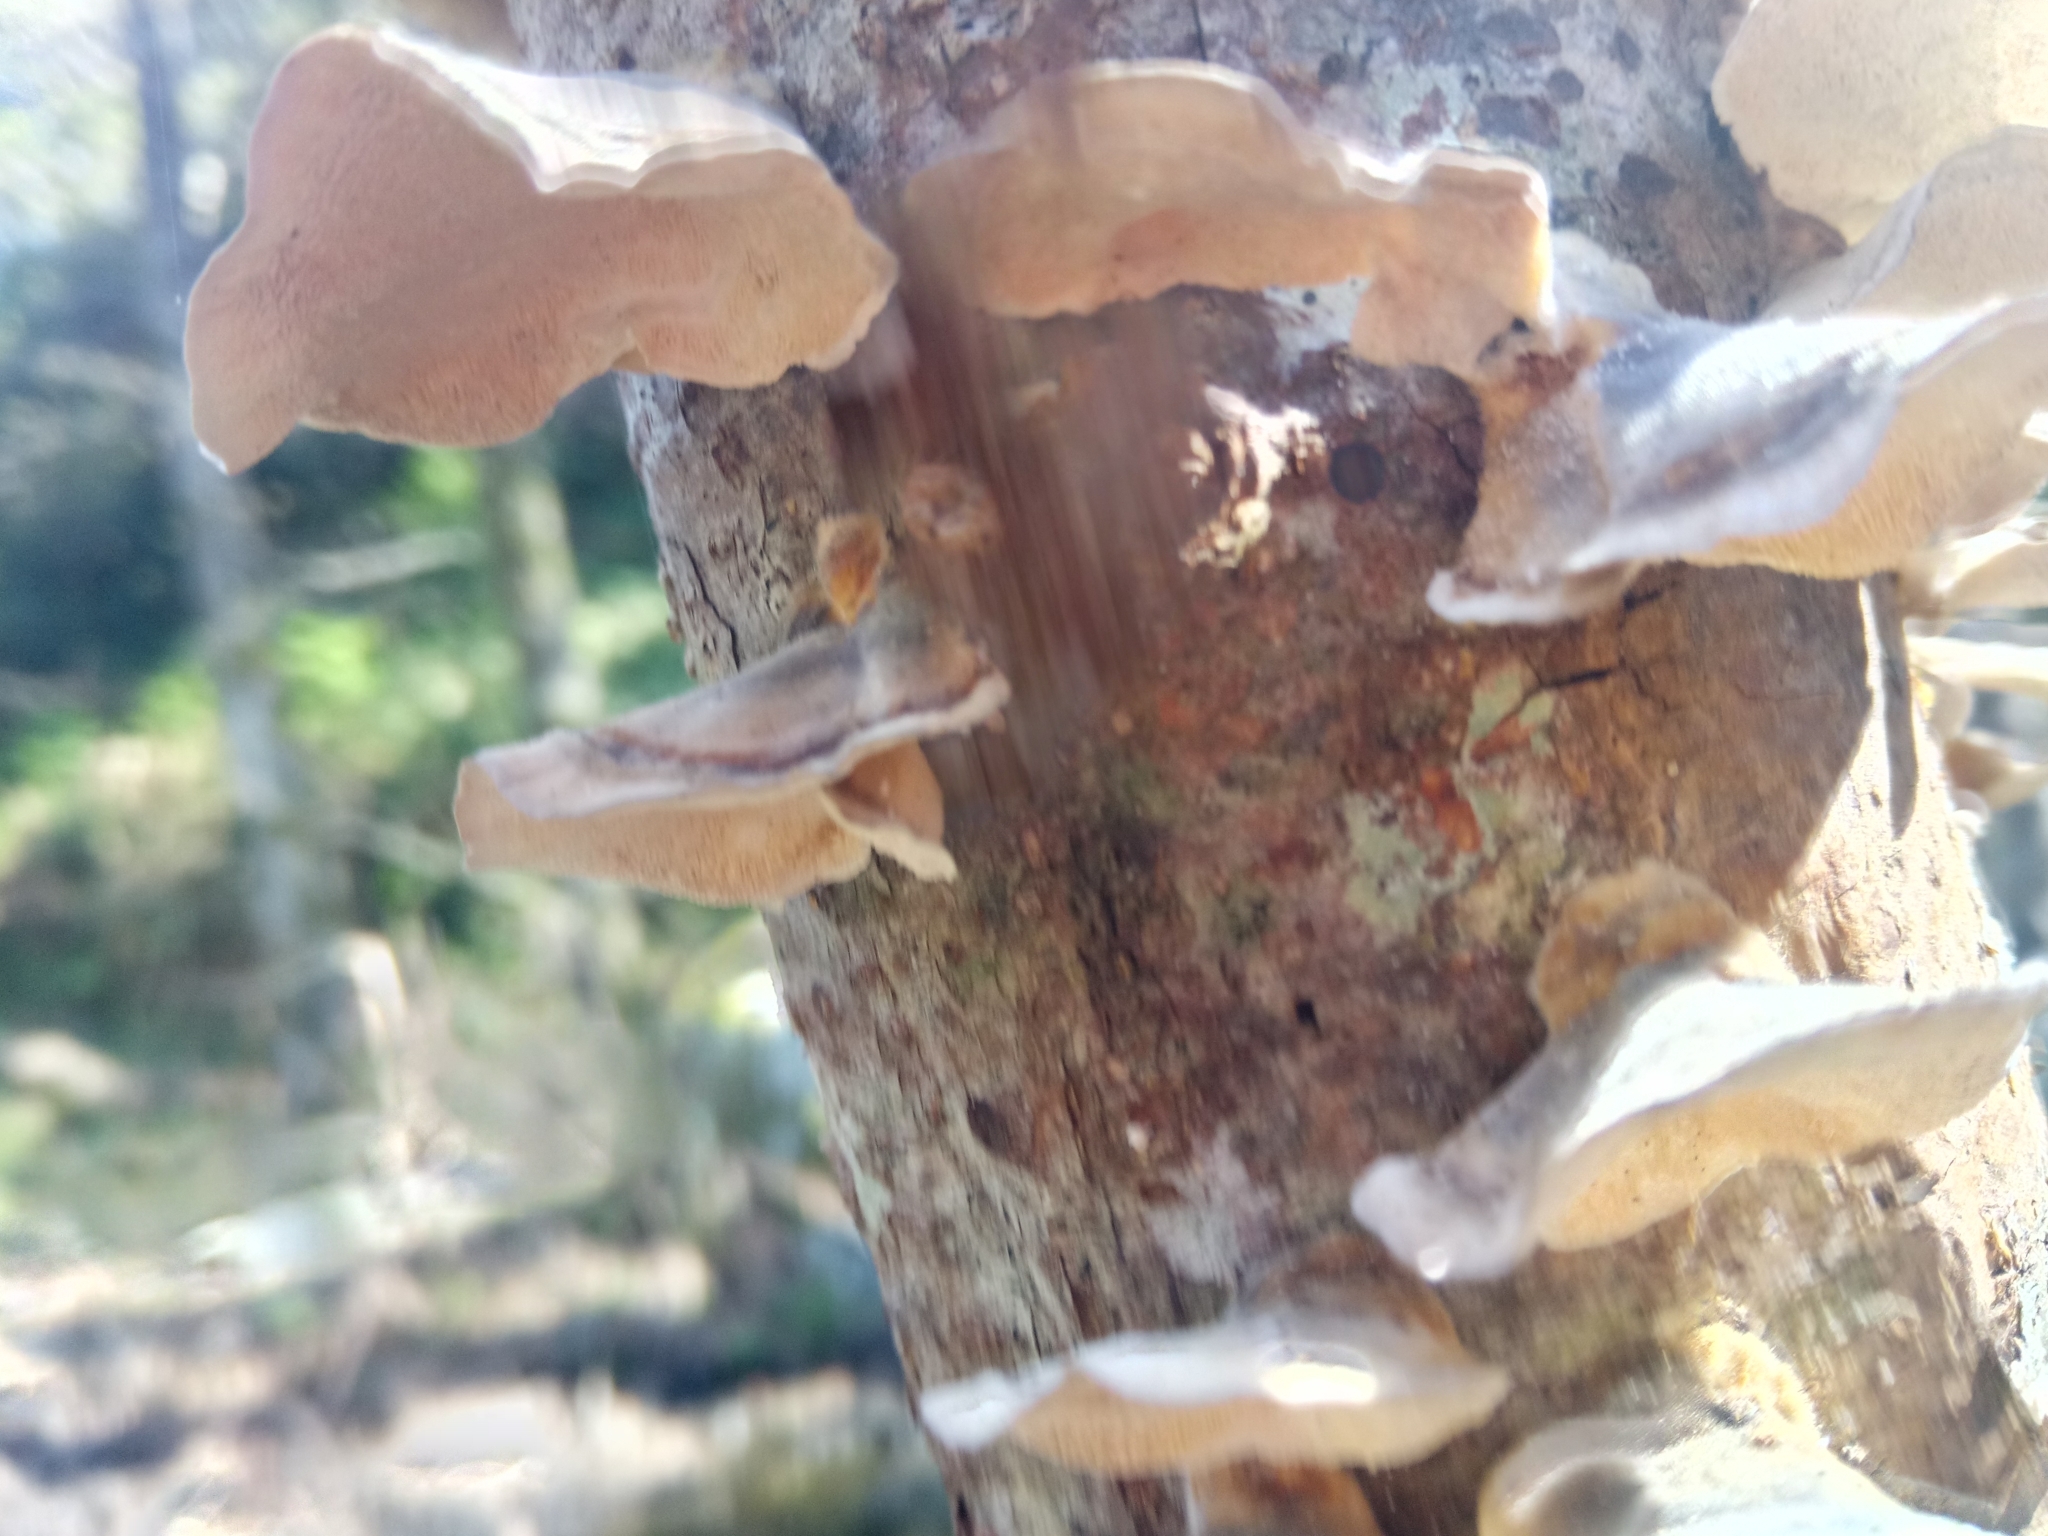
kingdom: Fungi
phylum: Basidiomycota
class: Agaricomycetes
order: Polyporales
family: Polyporaceae
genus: Trametes
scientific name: Trametes versicolor
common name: Turkeytail
